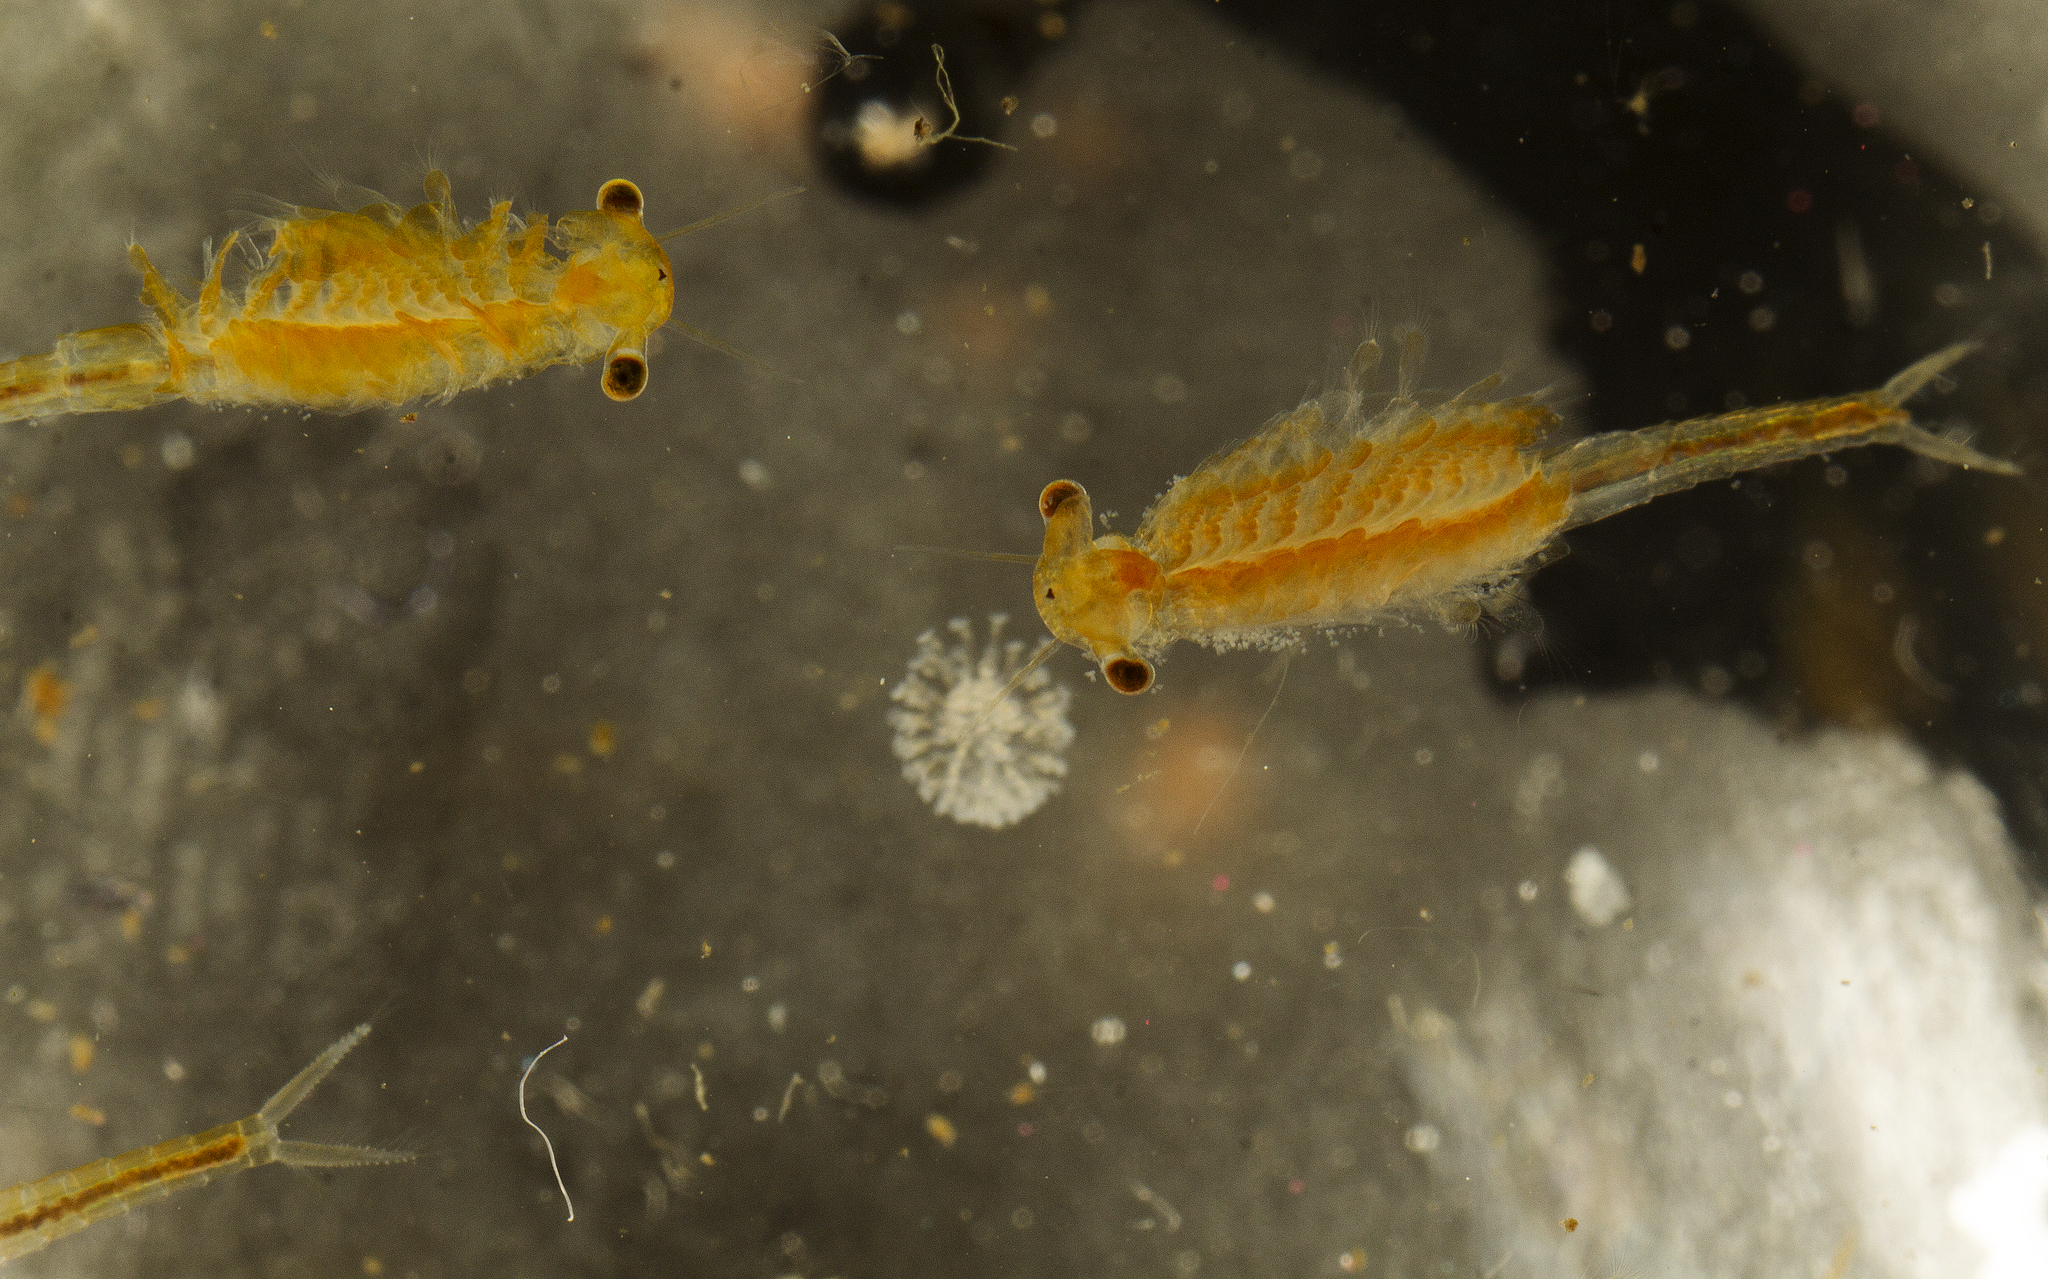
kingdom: Animalia
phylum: Arthropoda
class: Branchiopoda
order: Anostraca
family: Chirocephalidae
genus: Chirocephalus
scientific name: Chirocephalus shadini
